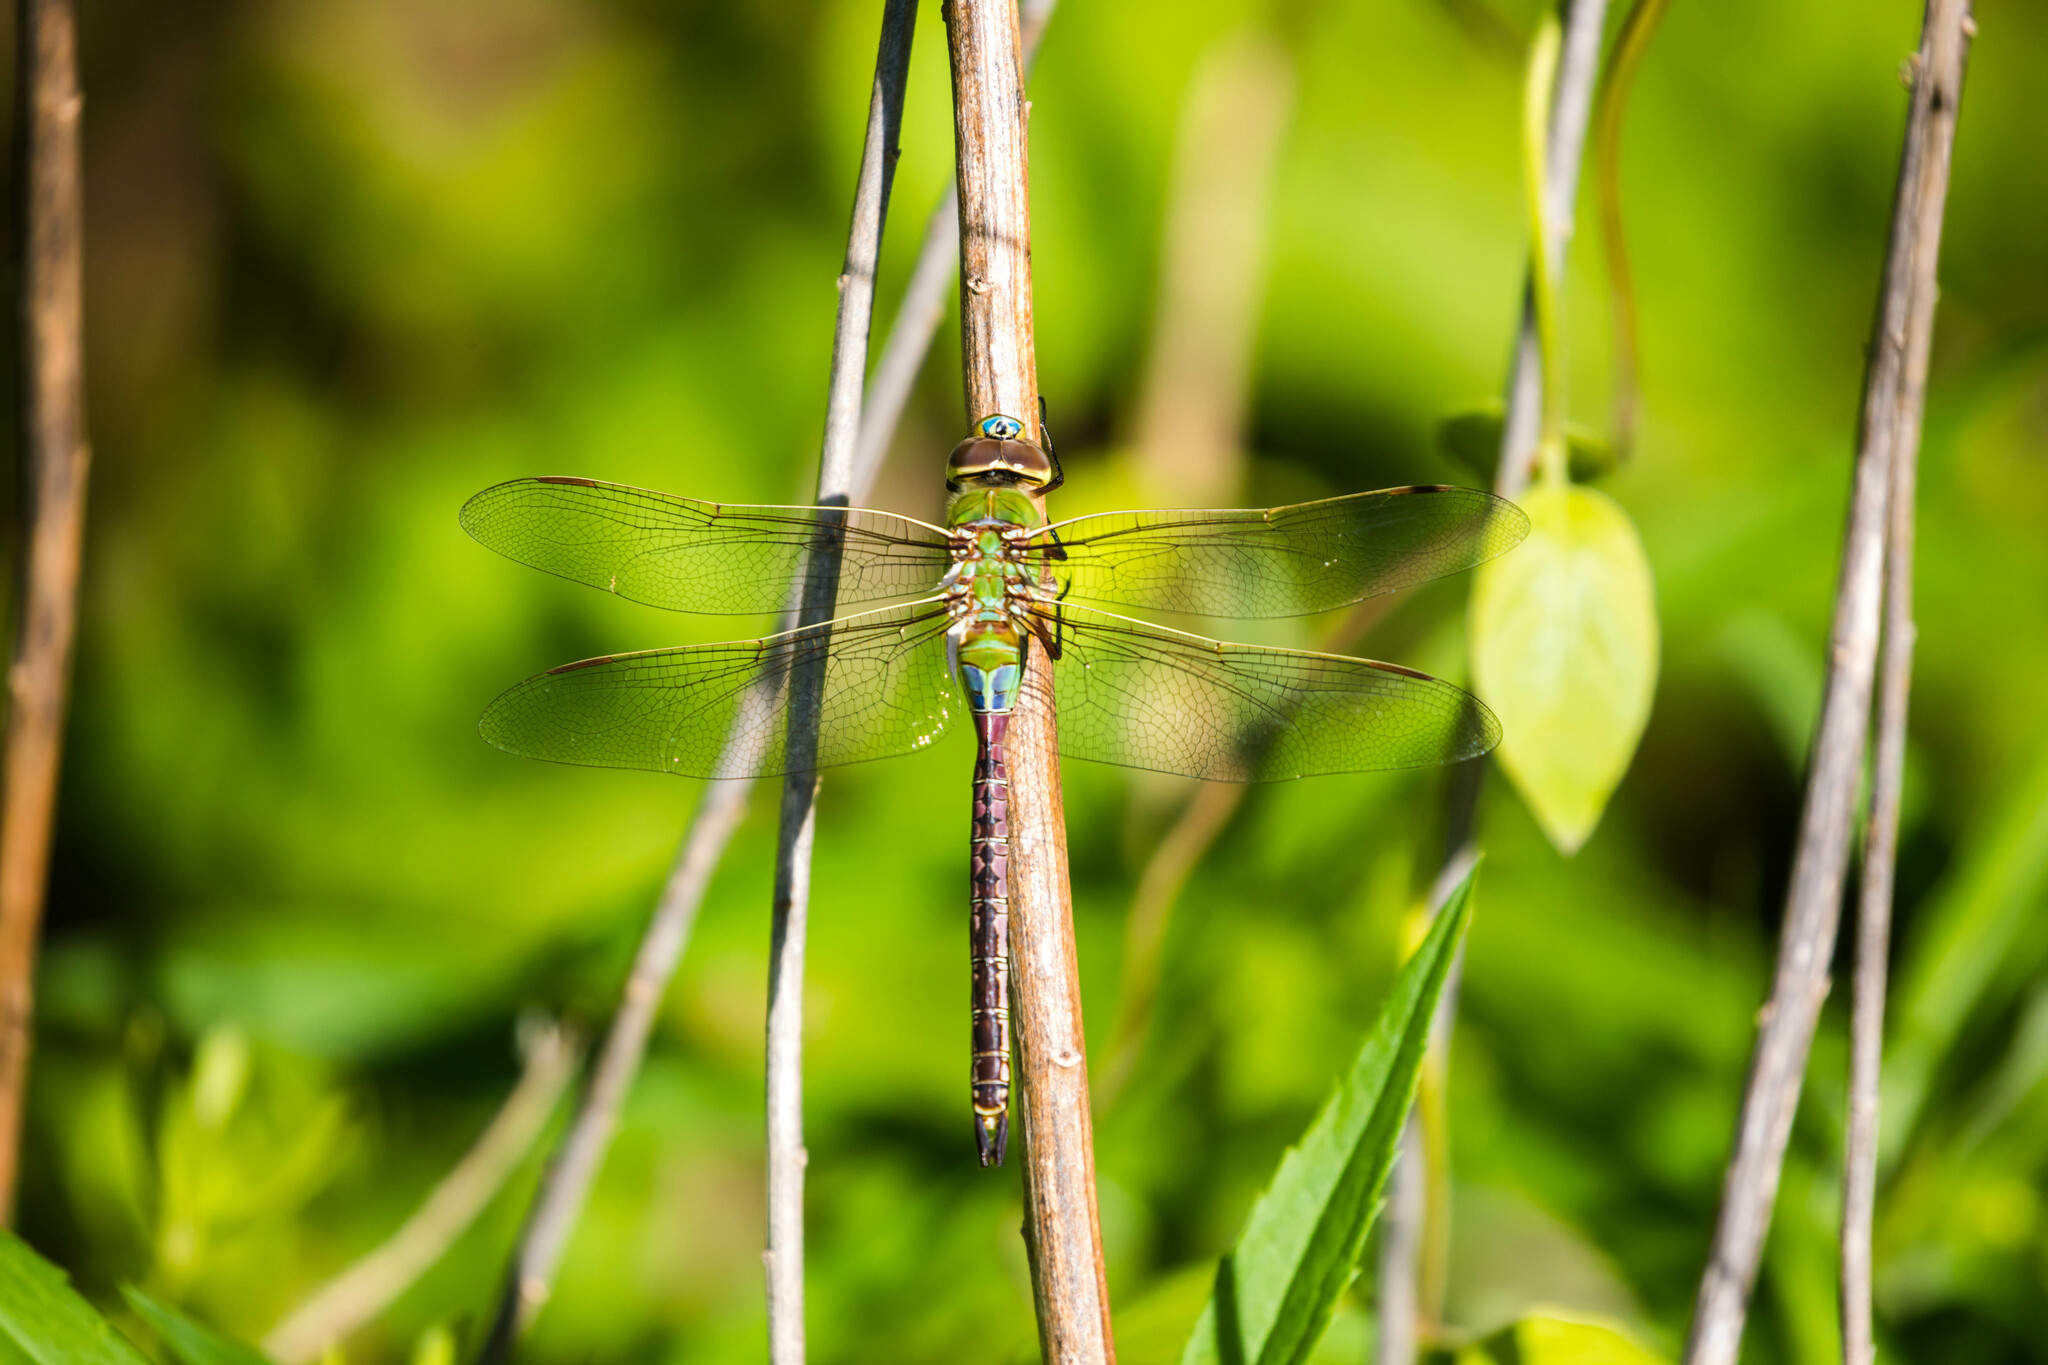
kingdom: Animalia
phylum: Arthropoda
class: Insecta
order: Odonata
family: Aeshnidae
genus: Anax
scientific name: Anax junius
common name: Common green darner
